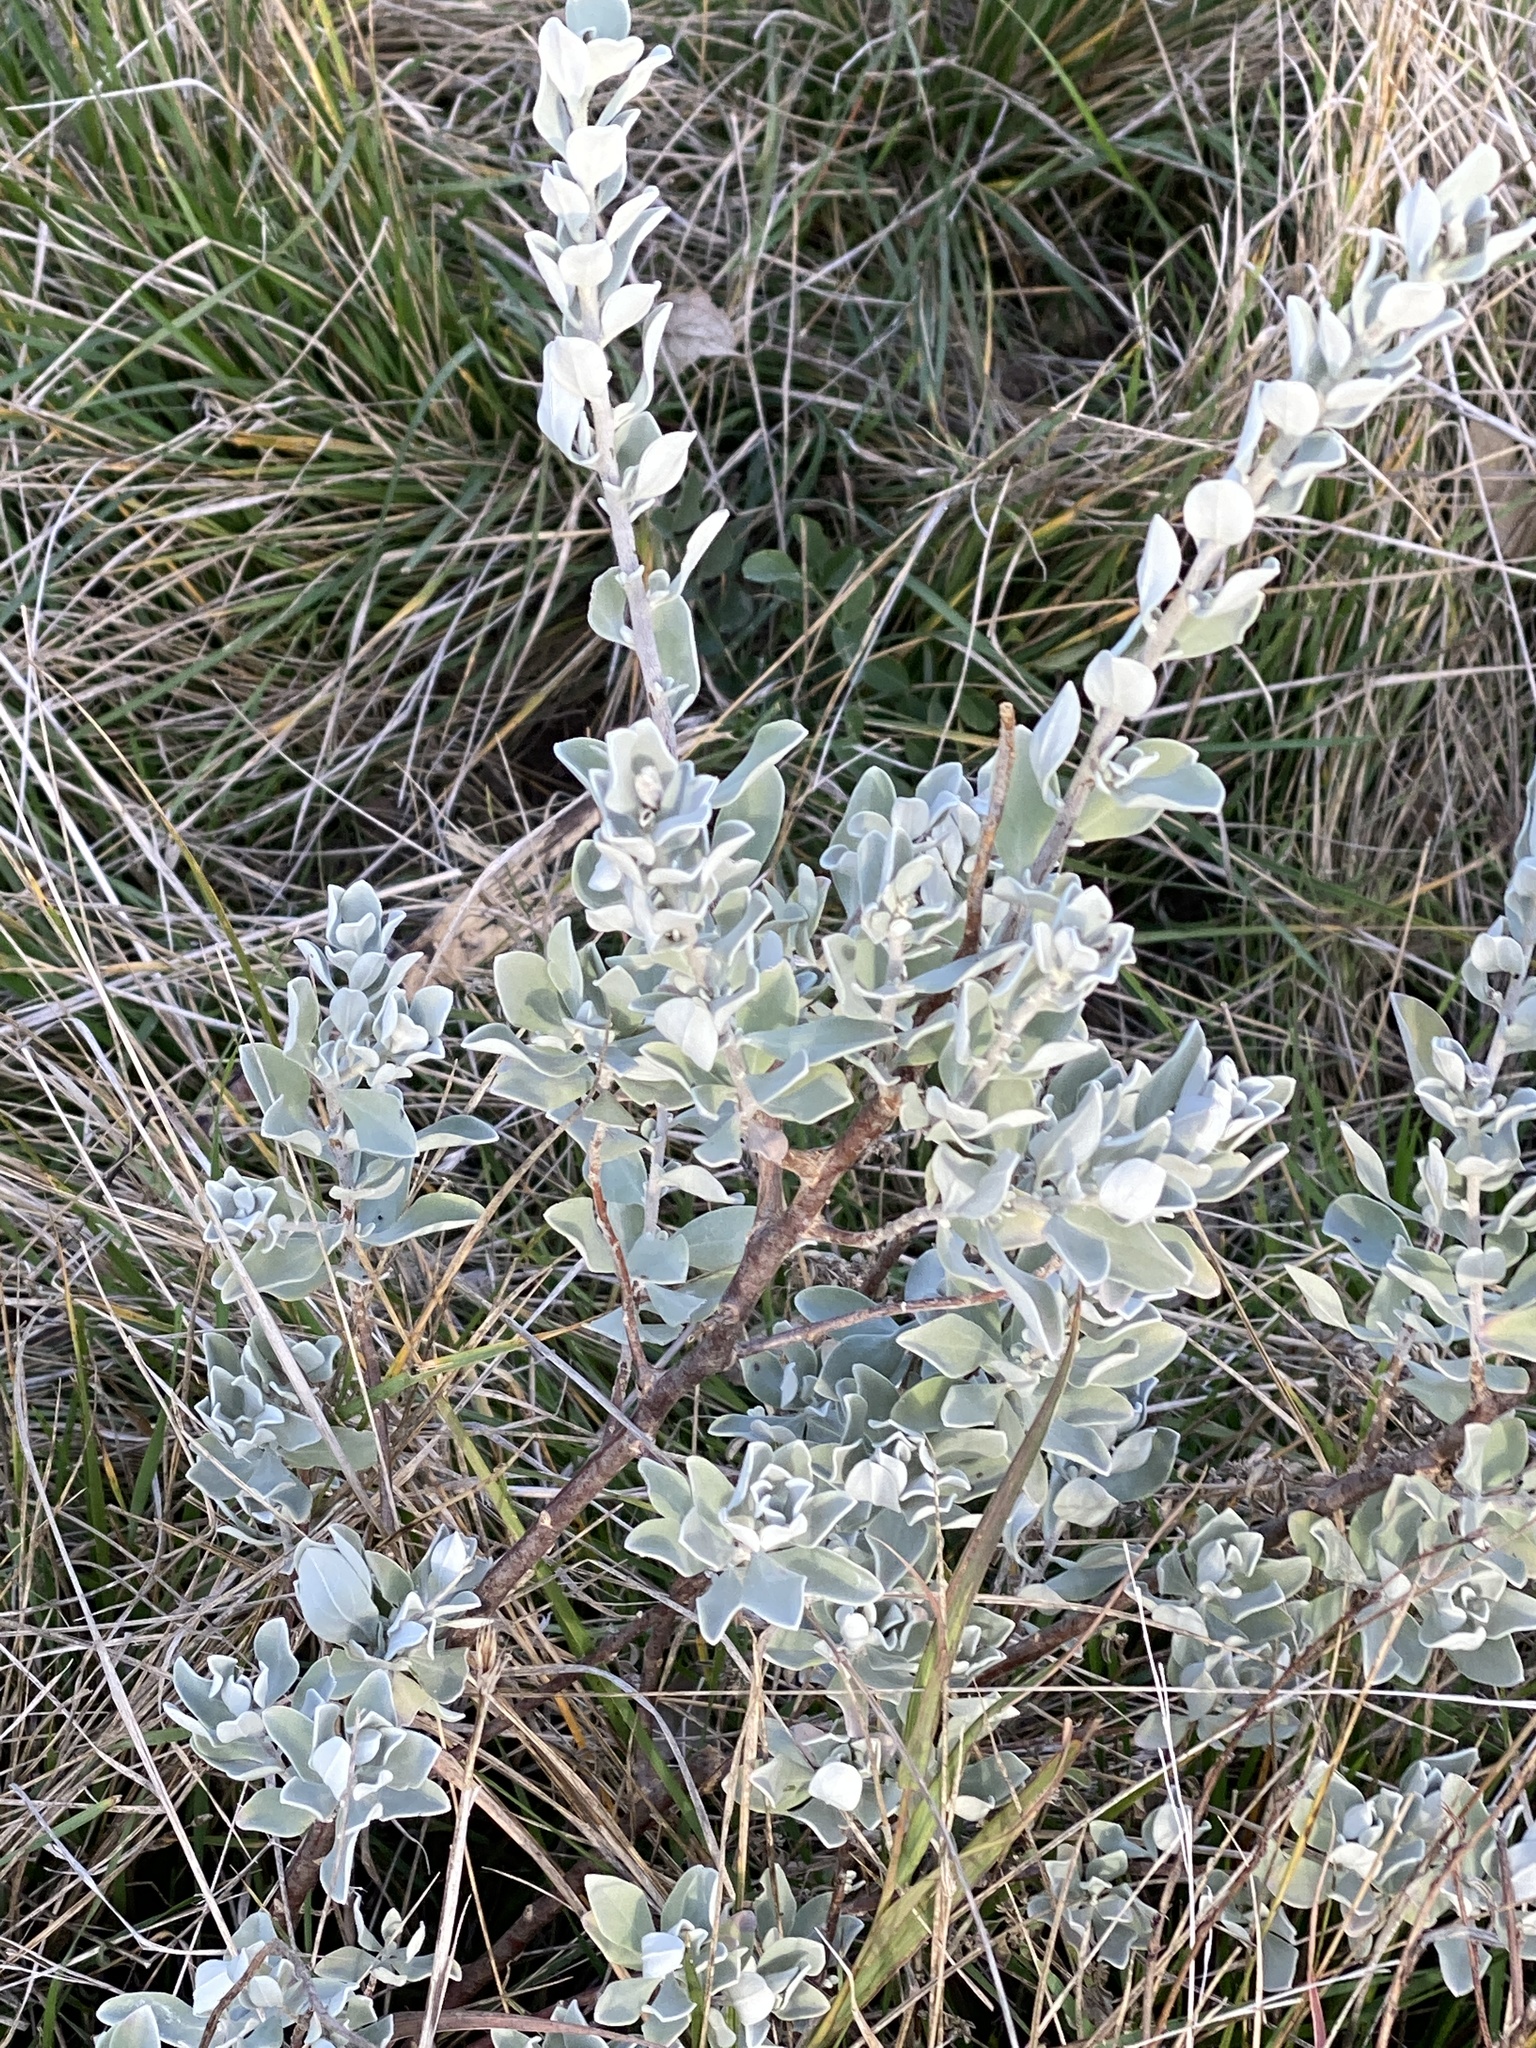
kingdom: Plantae
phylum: Tracheophyta
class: Magnoliopsida
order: Lamiales
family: Scrophulariaceae
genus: Leucophyllum
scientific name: Leucophyllum frutescens
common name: Texas silverleaf
